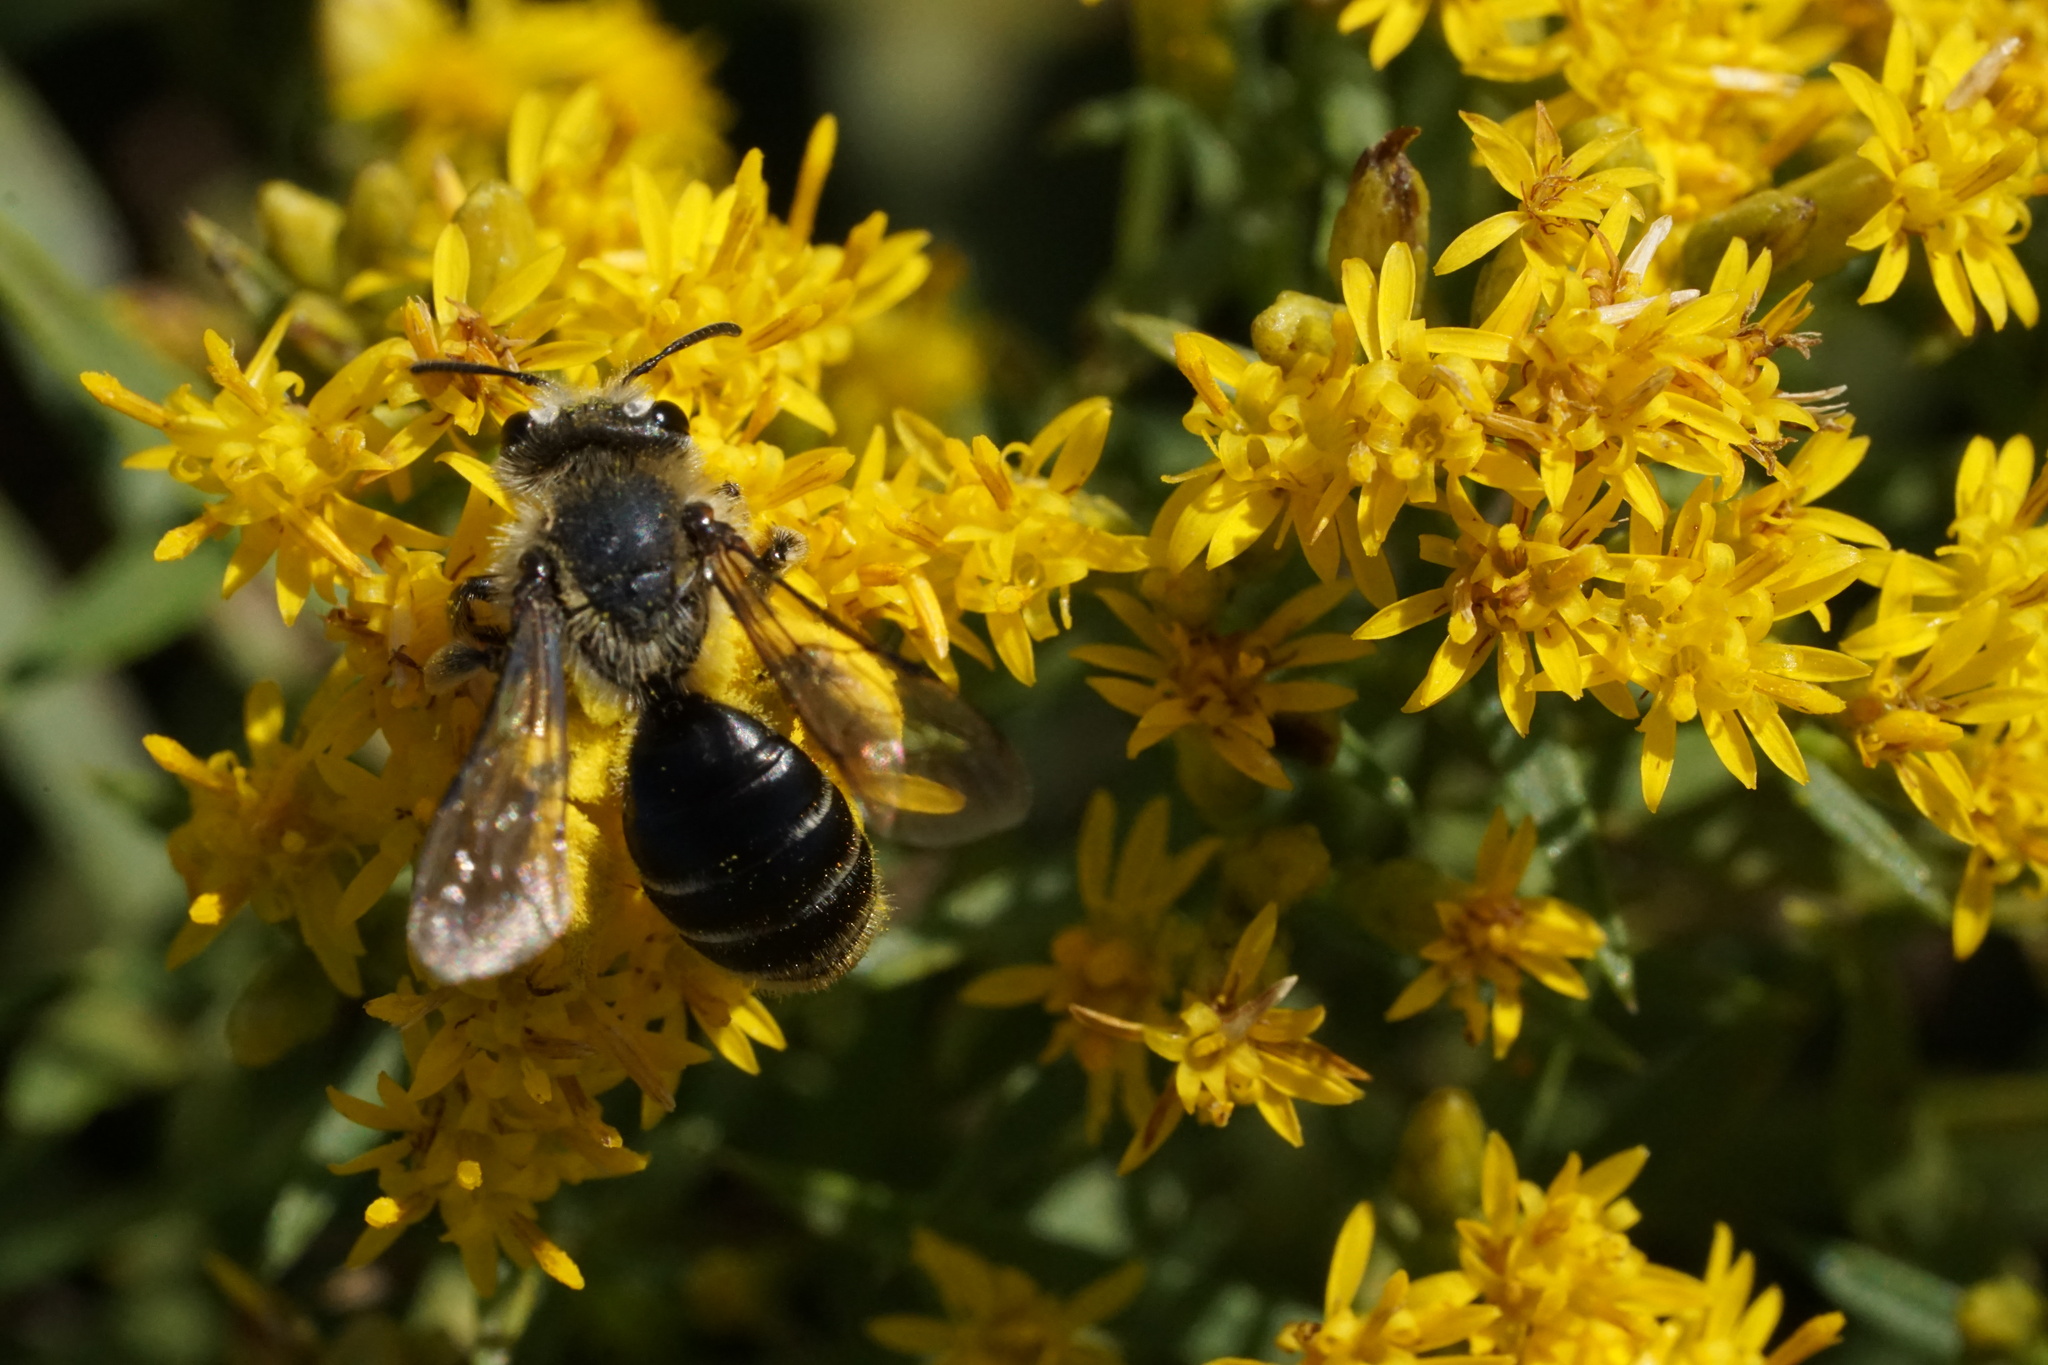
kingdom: Animalia
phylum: Arthropoda
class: Insecta
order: Hymenoptera
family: Andrenidae
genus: Andrena
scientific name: Andrena braccata
